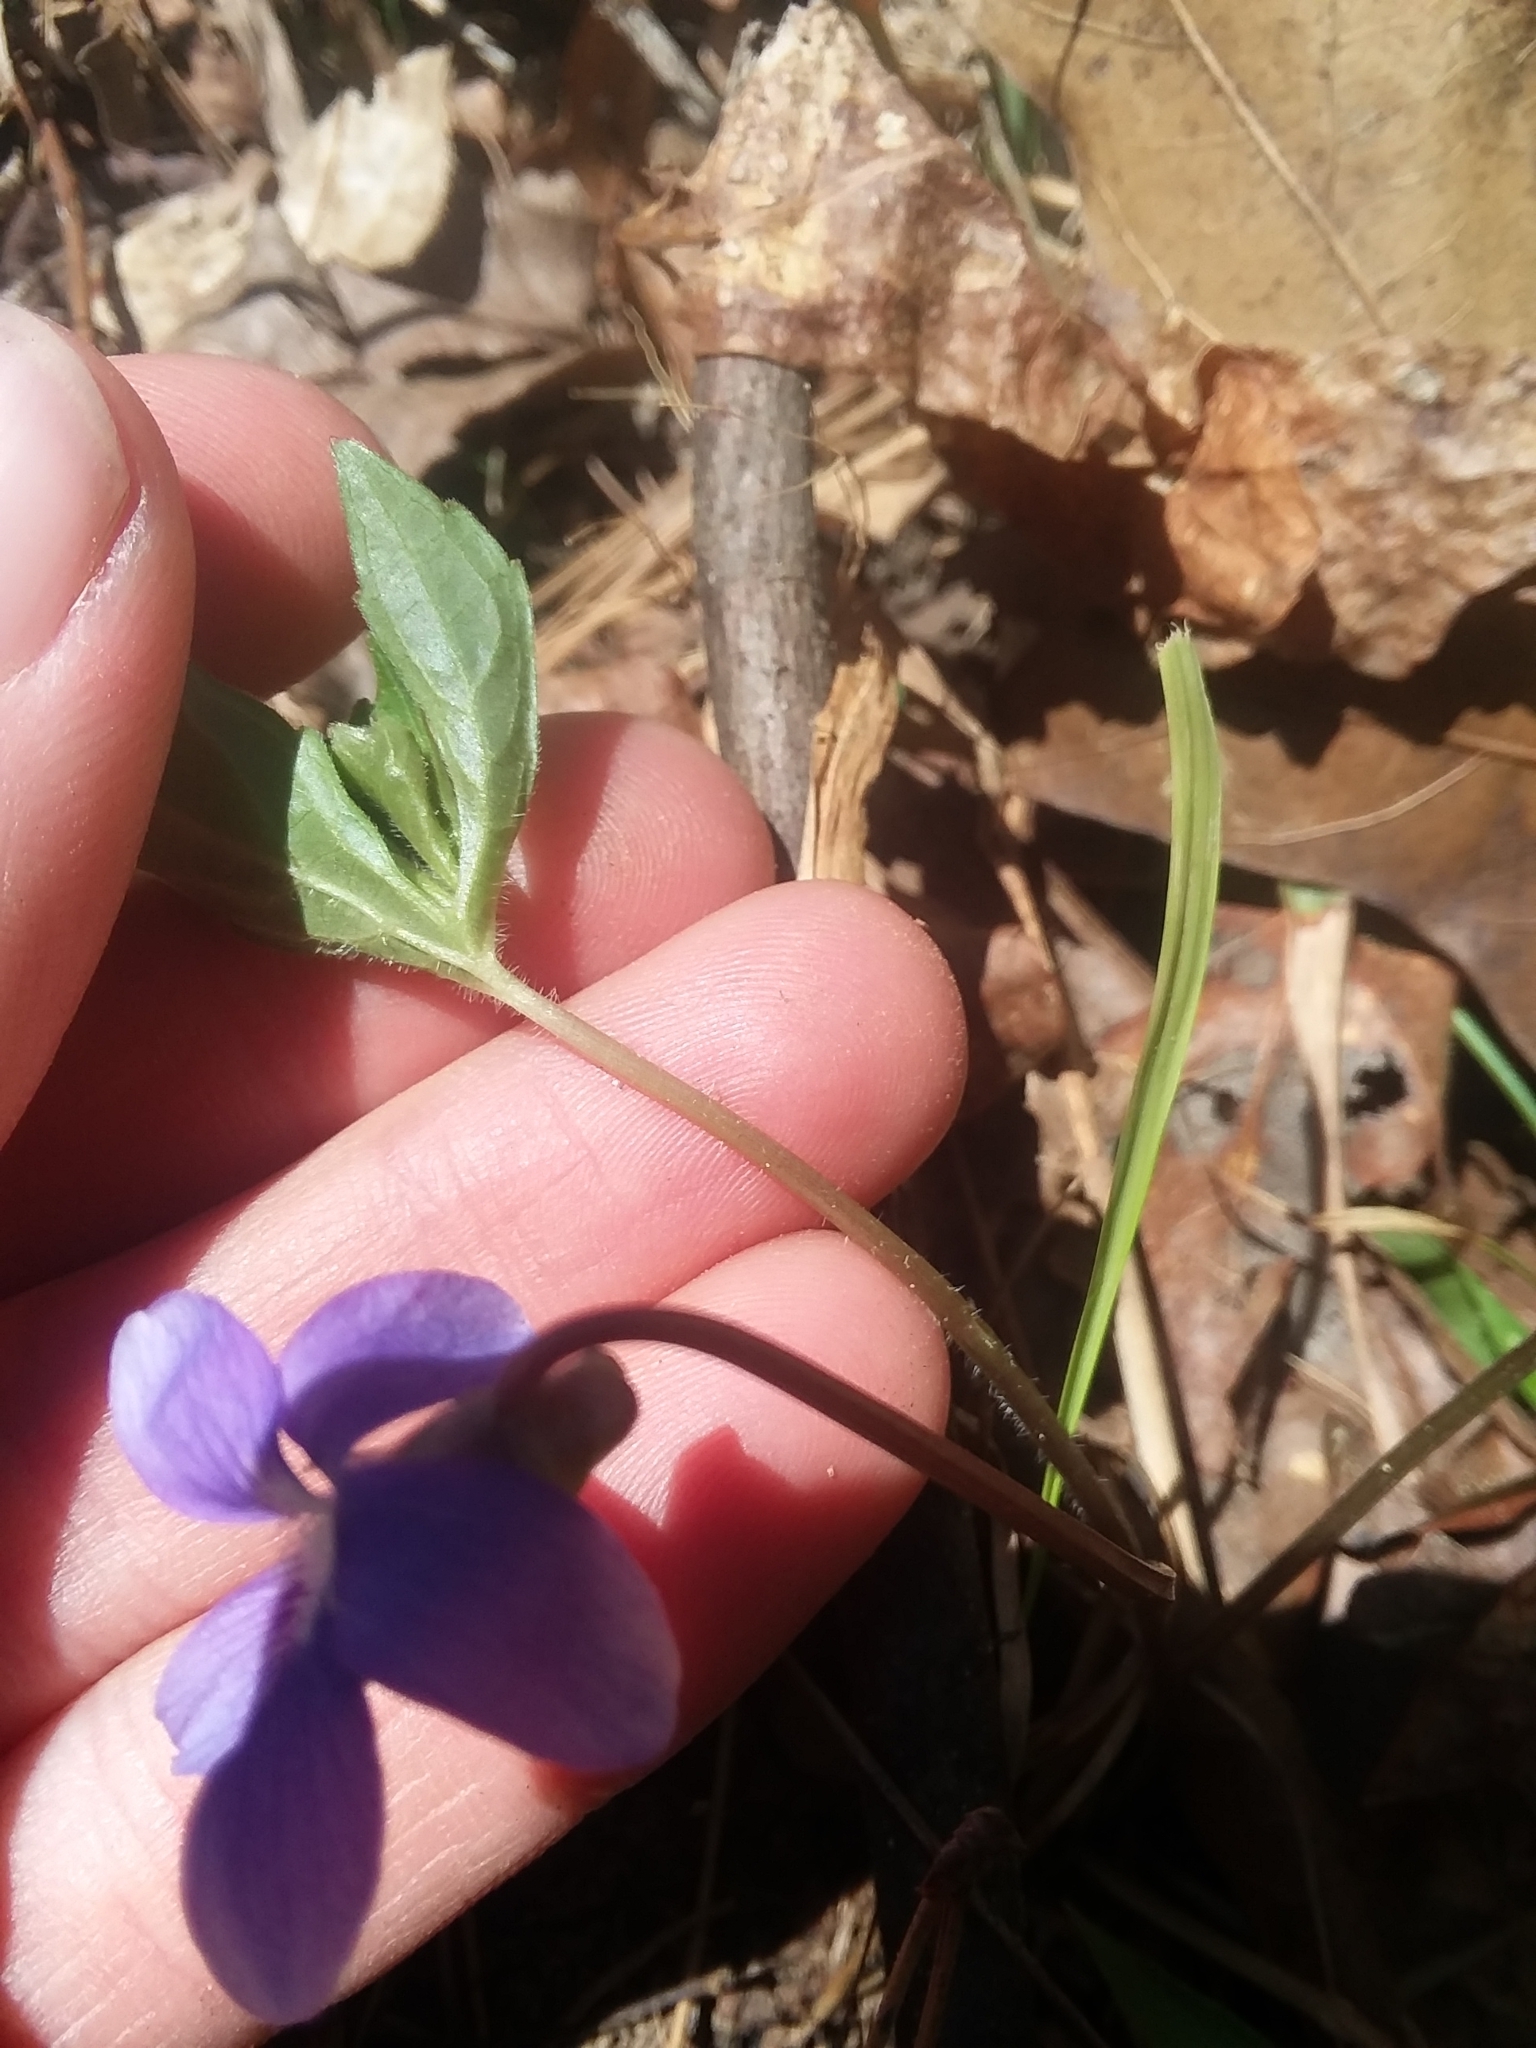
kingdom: Plantae
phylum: Tracheophyta
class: Magnoliopsida
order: Malpighiales
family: Violaceae
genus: Viola
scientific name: Viola palmata
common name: Early blue violet
